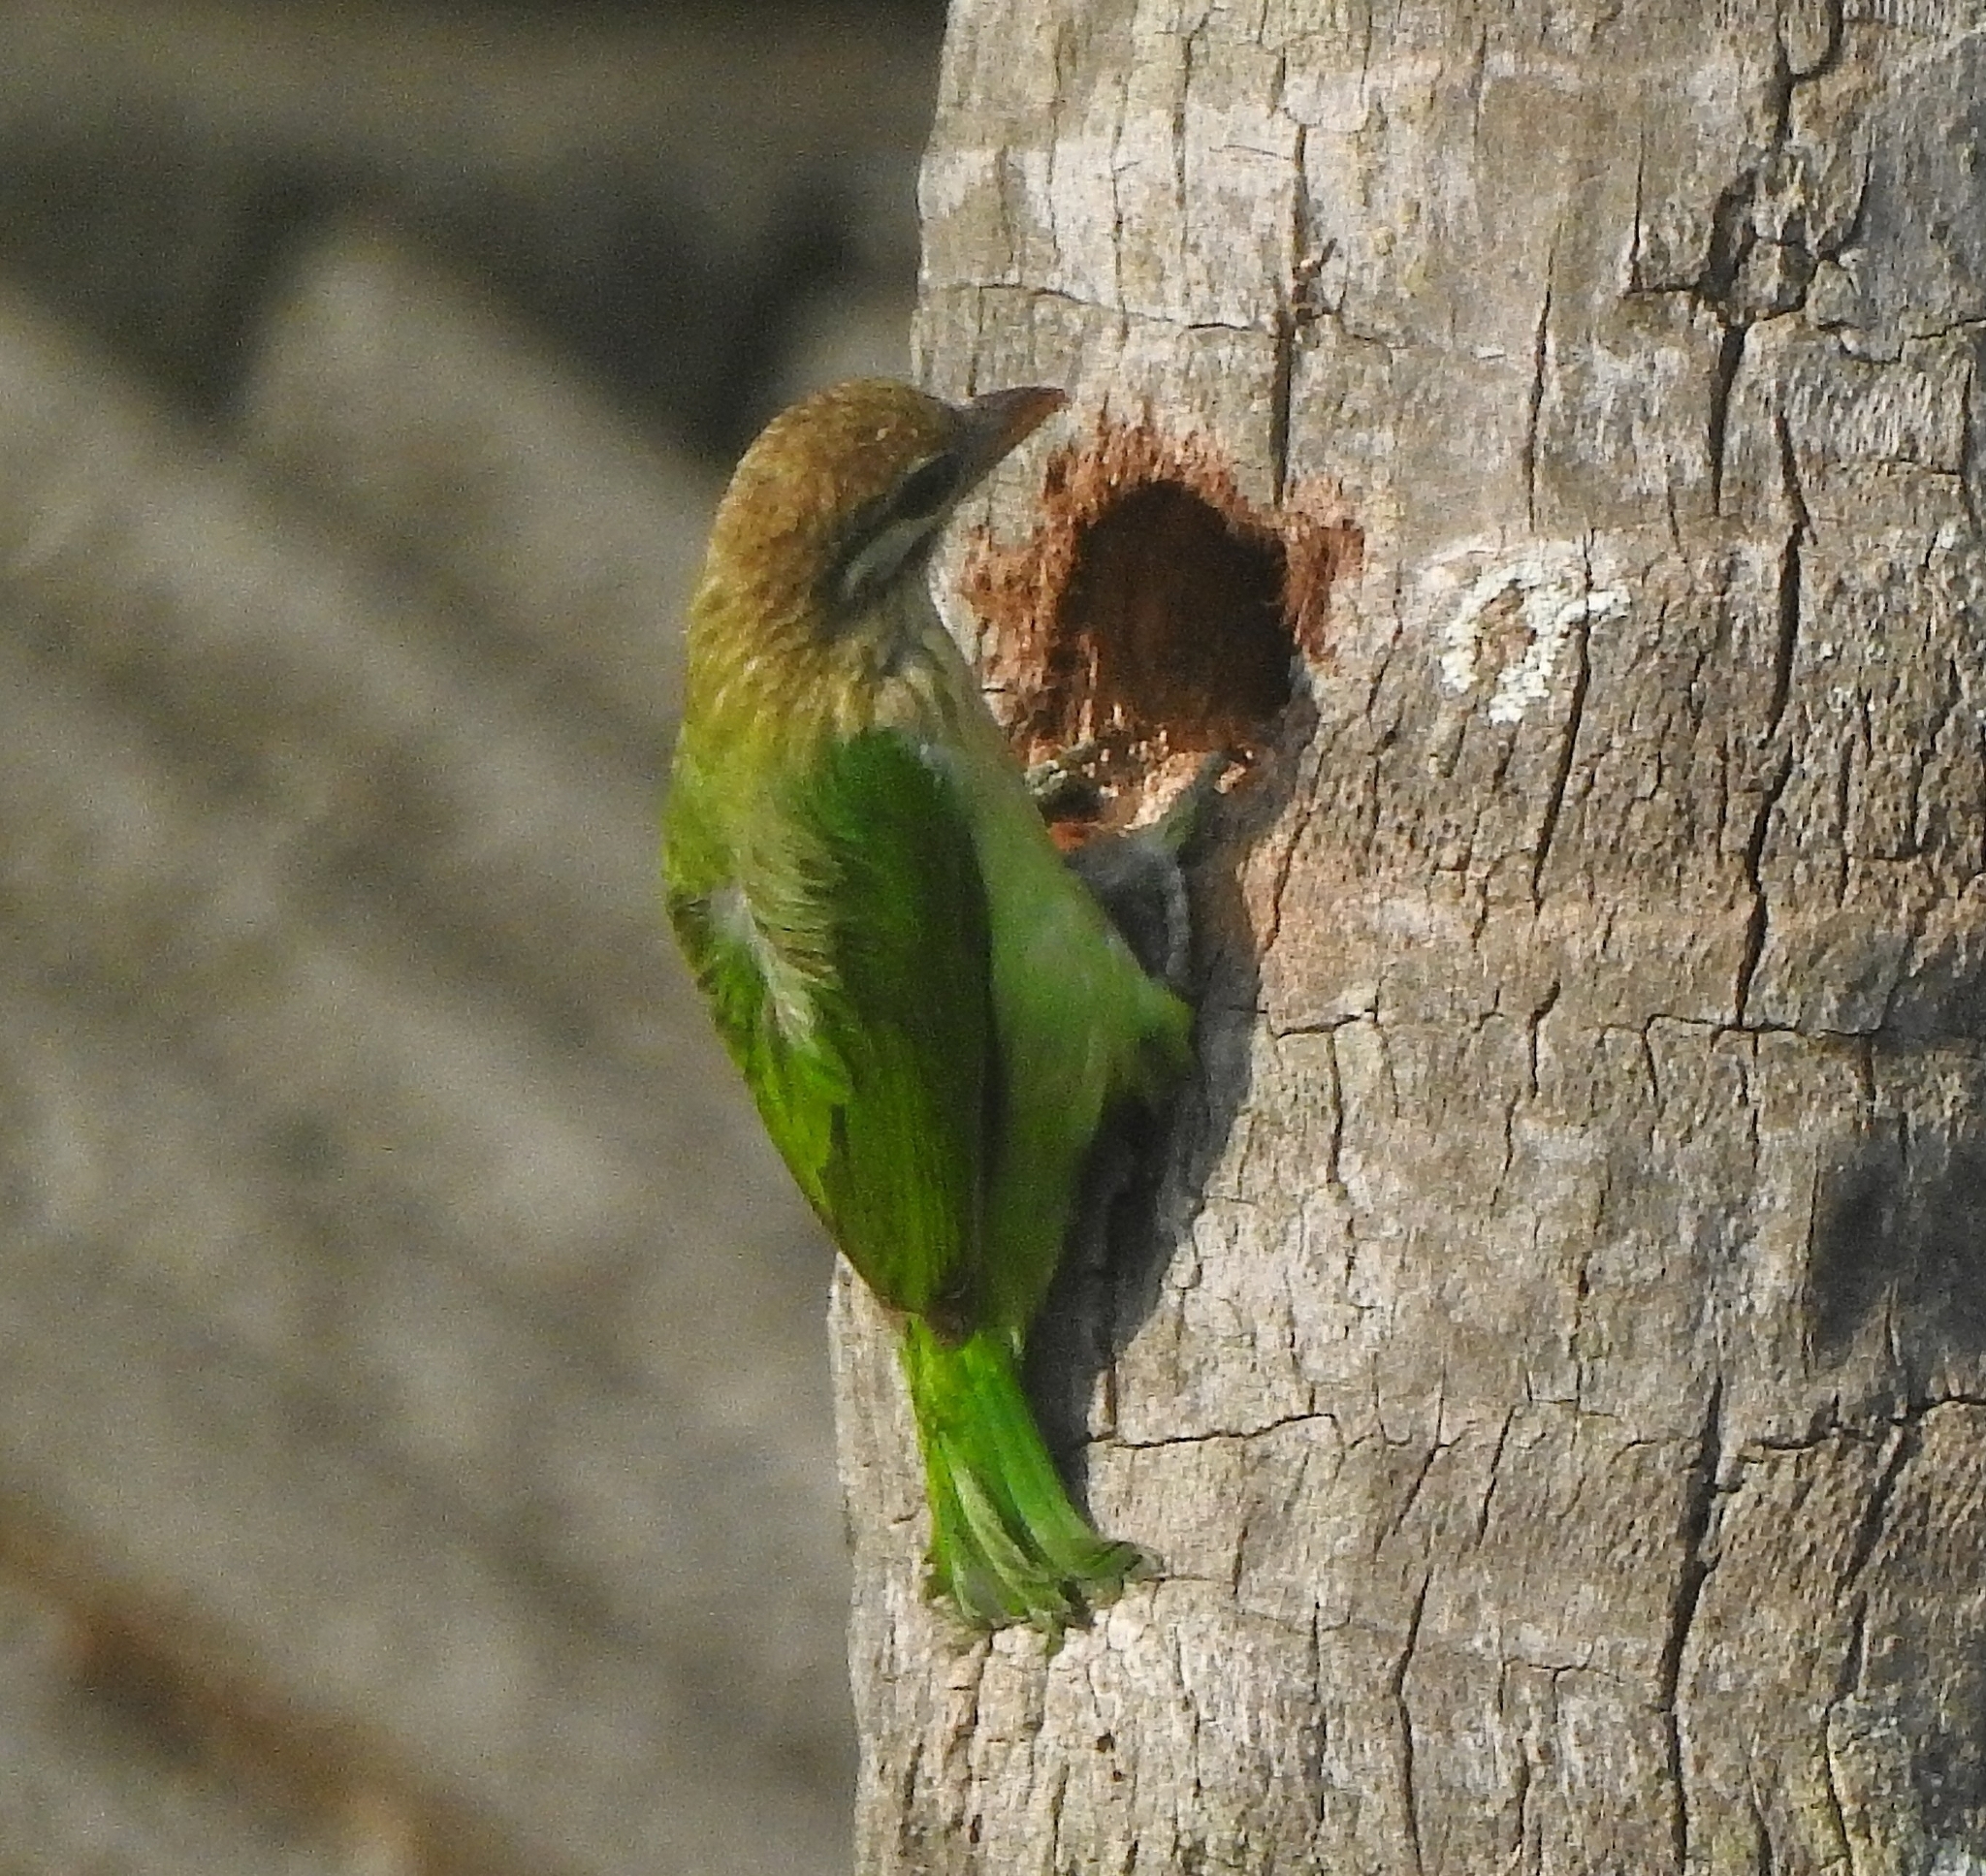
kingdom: Animalia
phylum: Chordata
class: Aves
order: Piciformes
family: Megalaimidae
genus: Psilopogon
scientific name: Psilopogon viridis
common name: White-cheeked barbet
